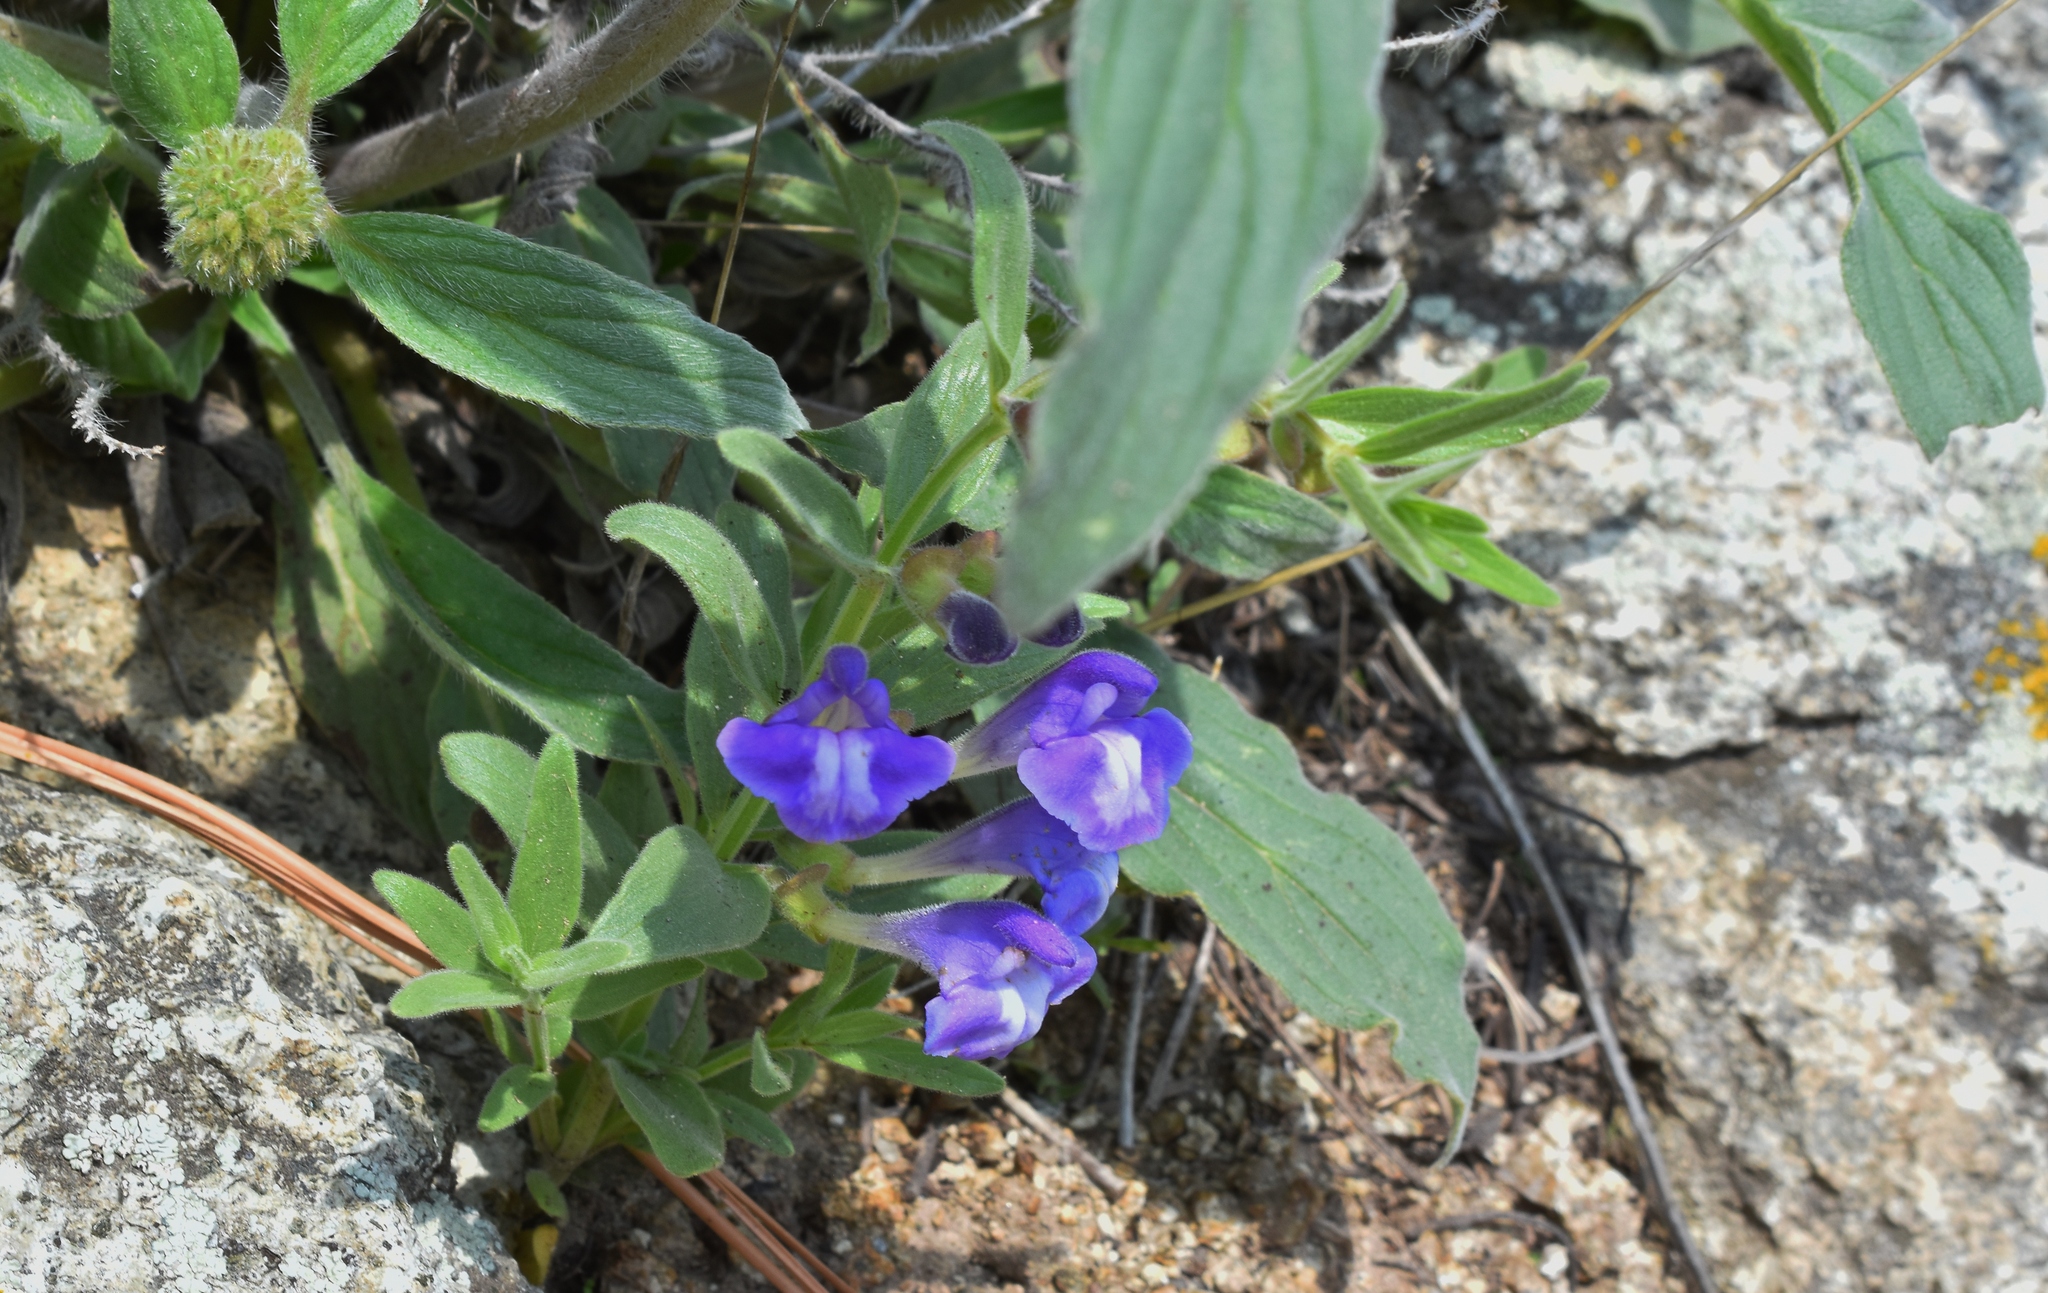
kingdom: Plantae
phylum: Tracheophyta
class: Magnoliopsida
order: Lamiales
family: Lamiaceae
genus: Scutellaria
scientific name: Scutellaria brittonii
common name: Britton's skullcap
